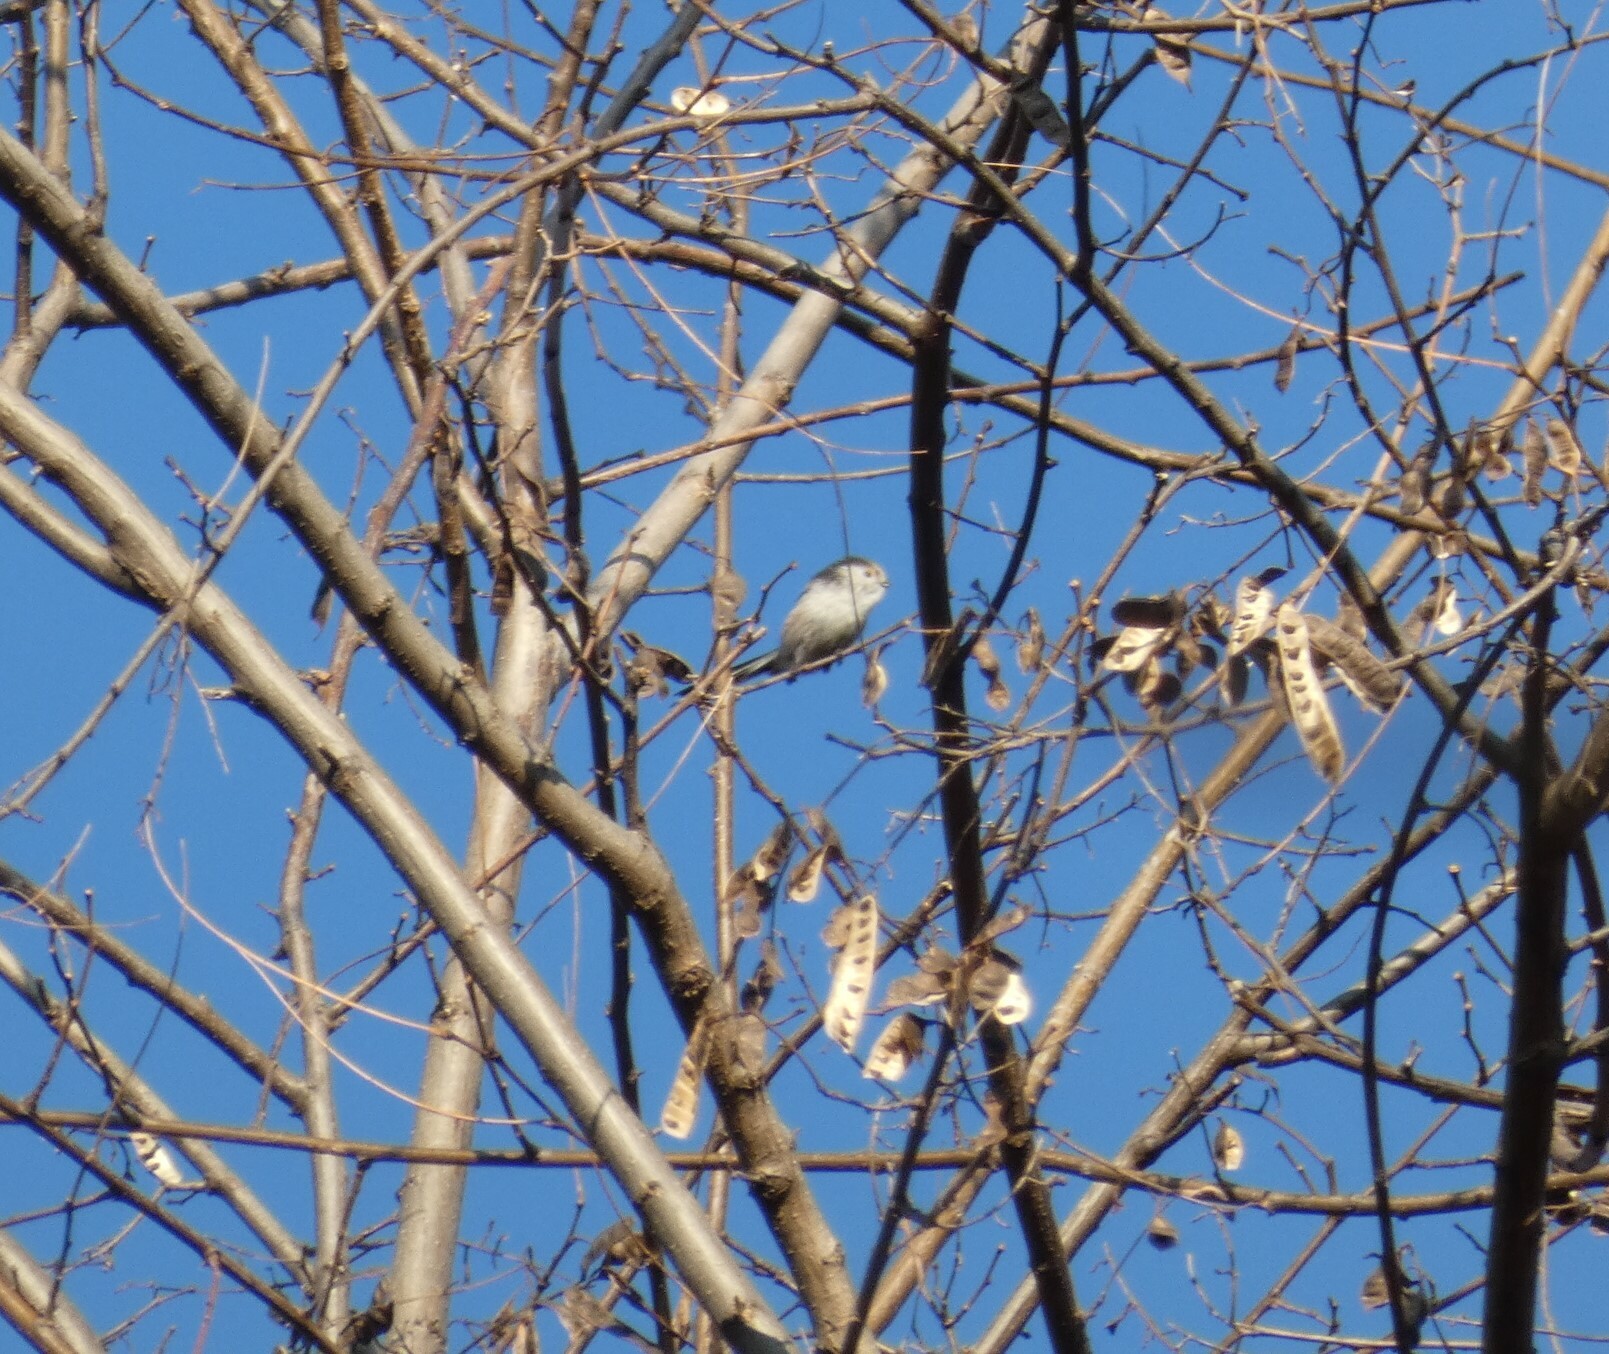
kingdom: Animalia
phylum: Chordata
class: Aves
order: Passeriformes
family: Aegithalidae
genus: Aegithalos
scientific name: Aegithalos caudatus
